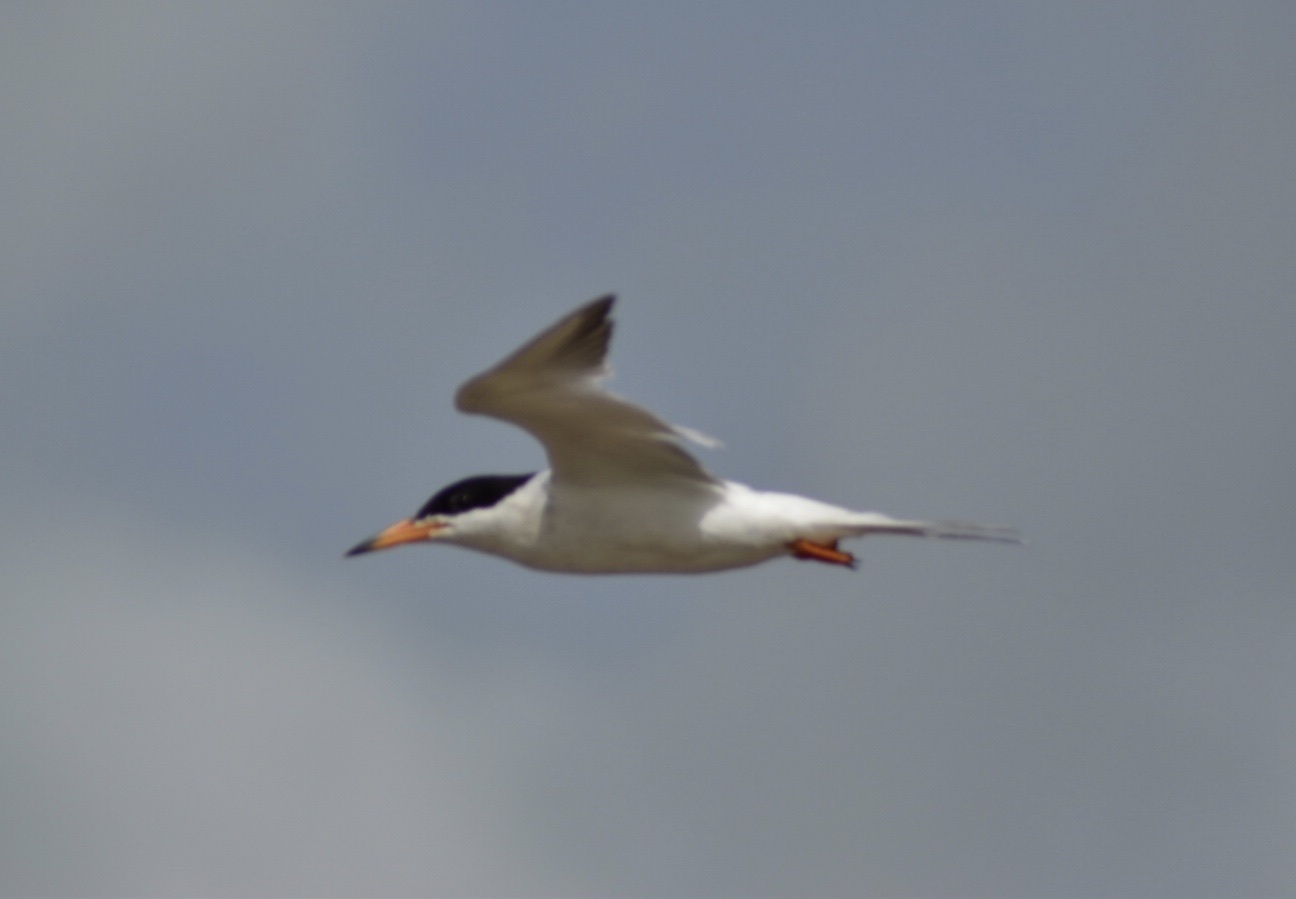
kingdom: Animalia
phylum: Chordata
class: Aves
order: Charadriiformes
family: Laridae
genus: Sterna
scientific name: Sterna forsteri
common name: Forster's tern
